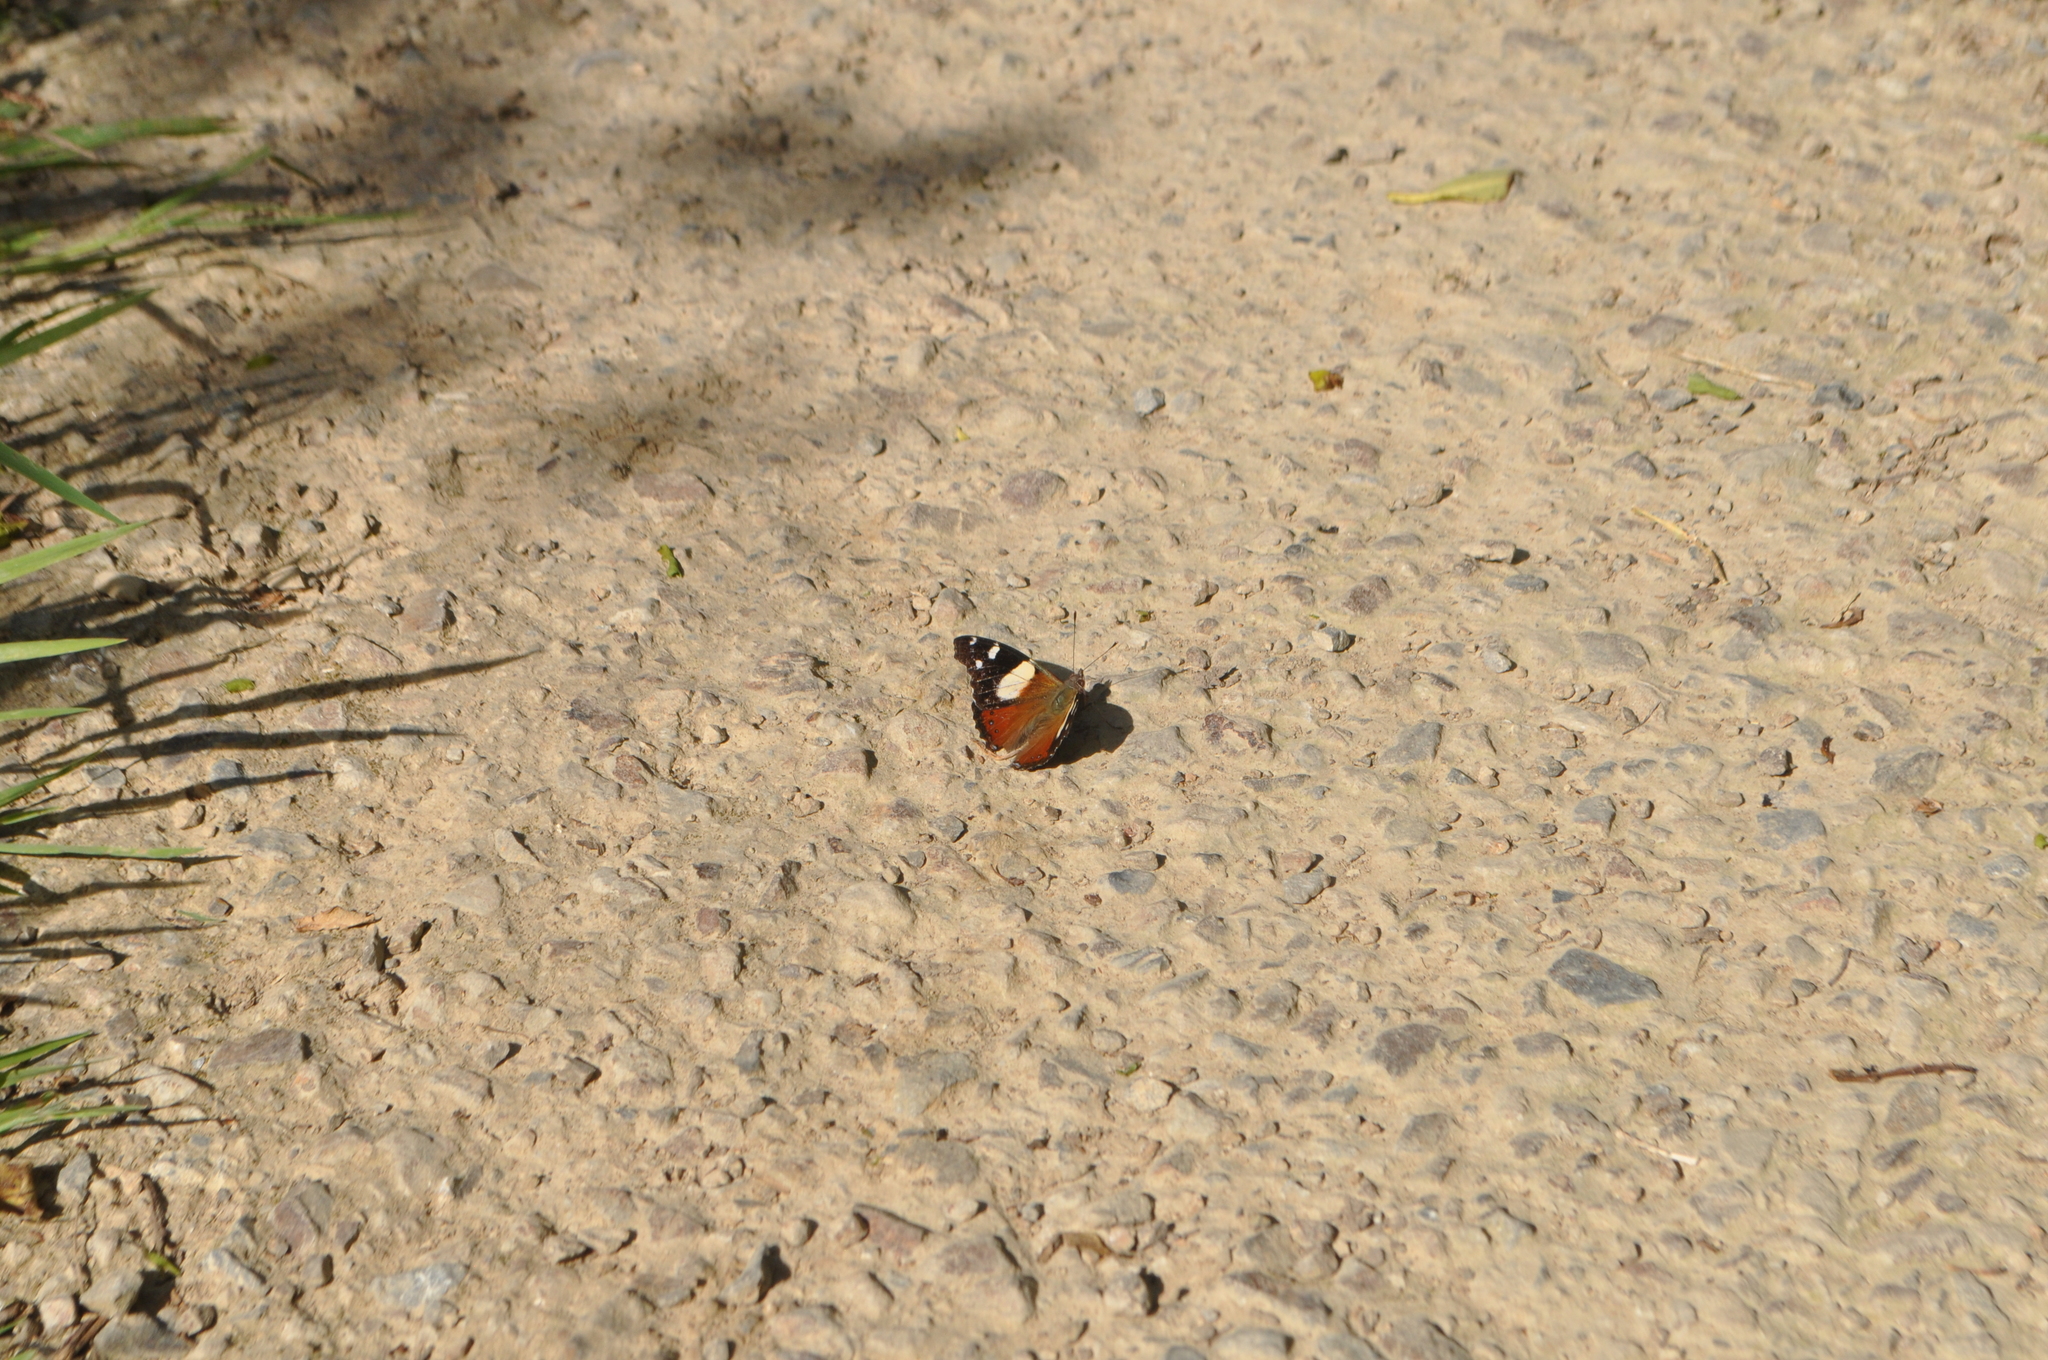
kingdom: Animalia
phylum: Arthropoda
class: Insecta
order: Lepidoptera
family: Nymphalidae
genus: Vanessa
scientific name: Vanessa itea
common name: Yellow admiral
